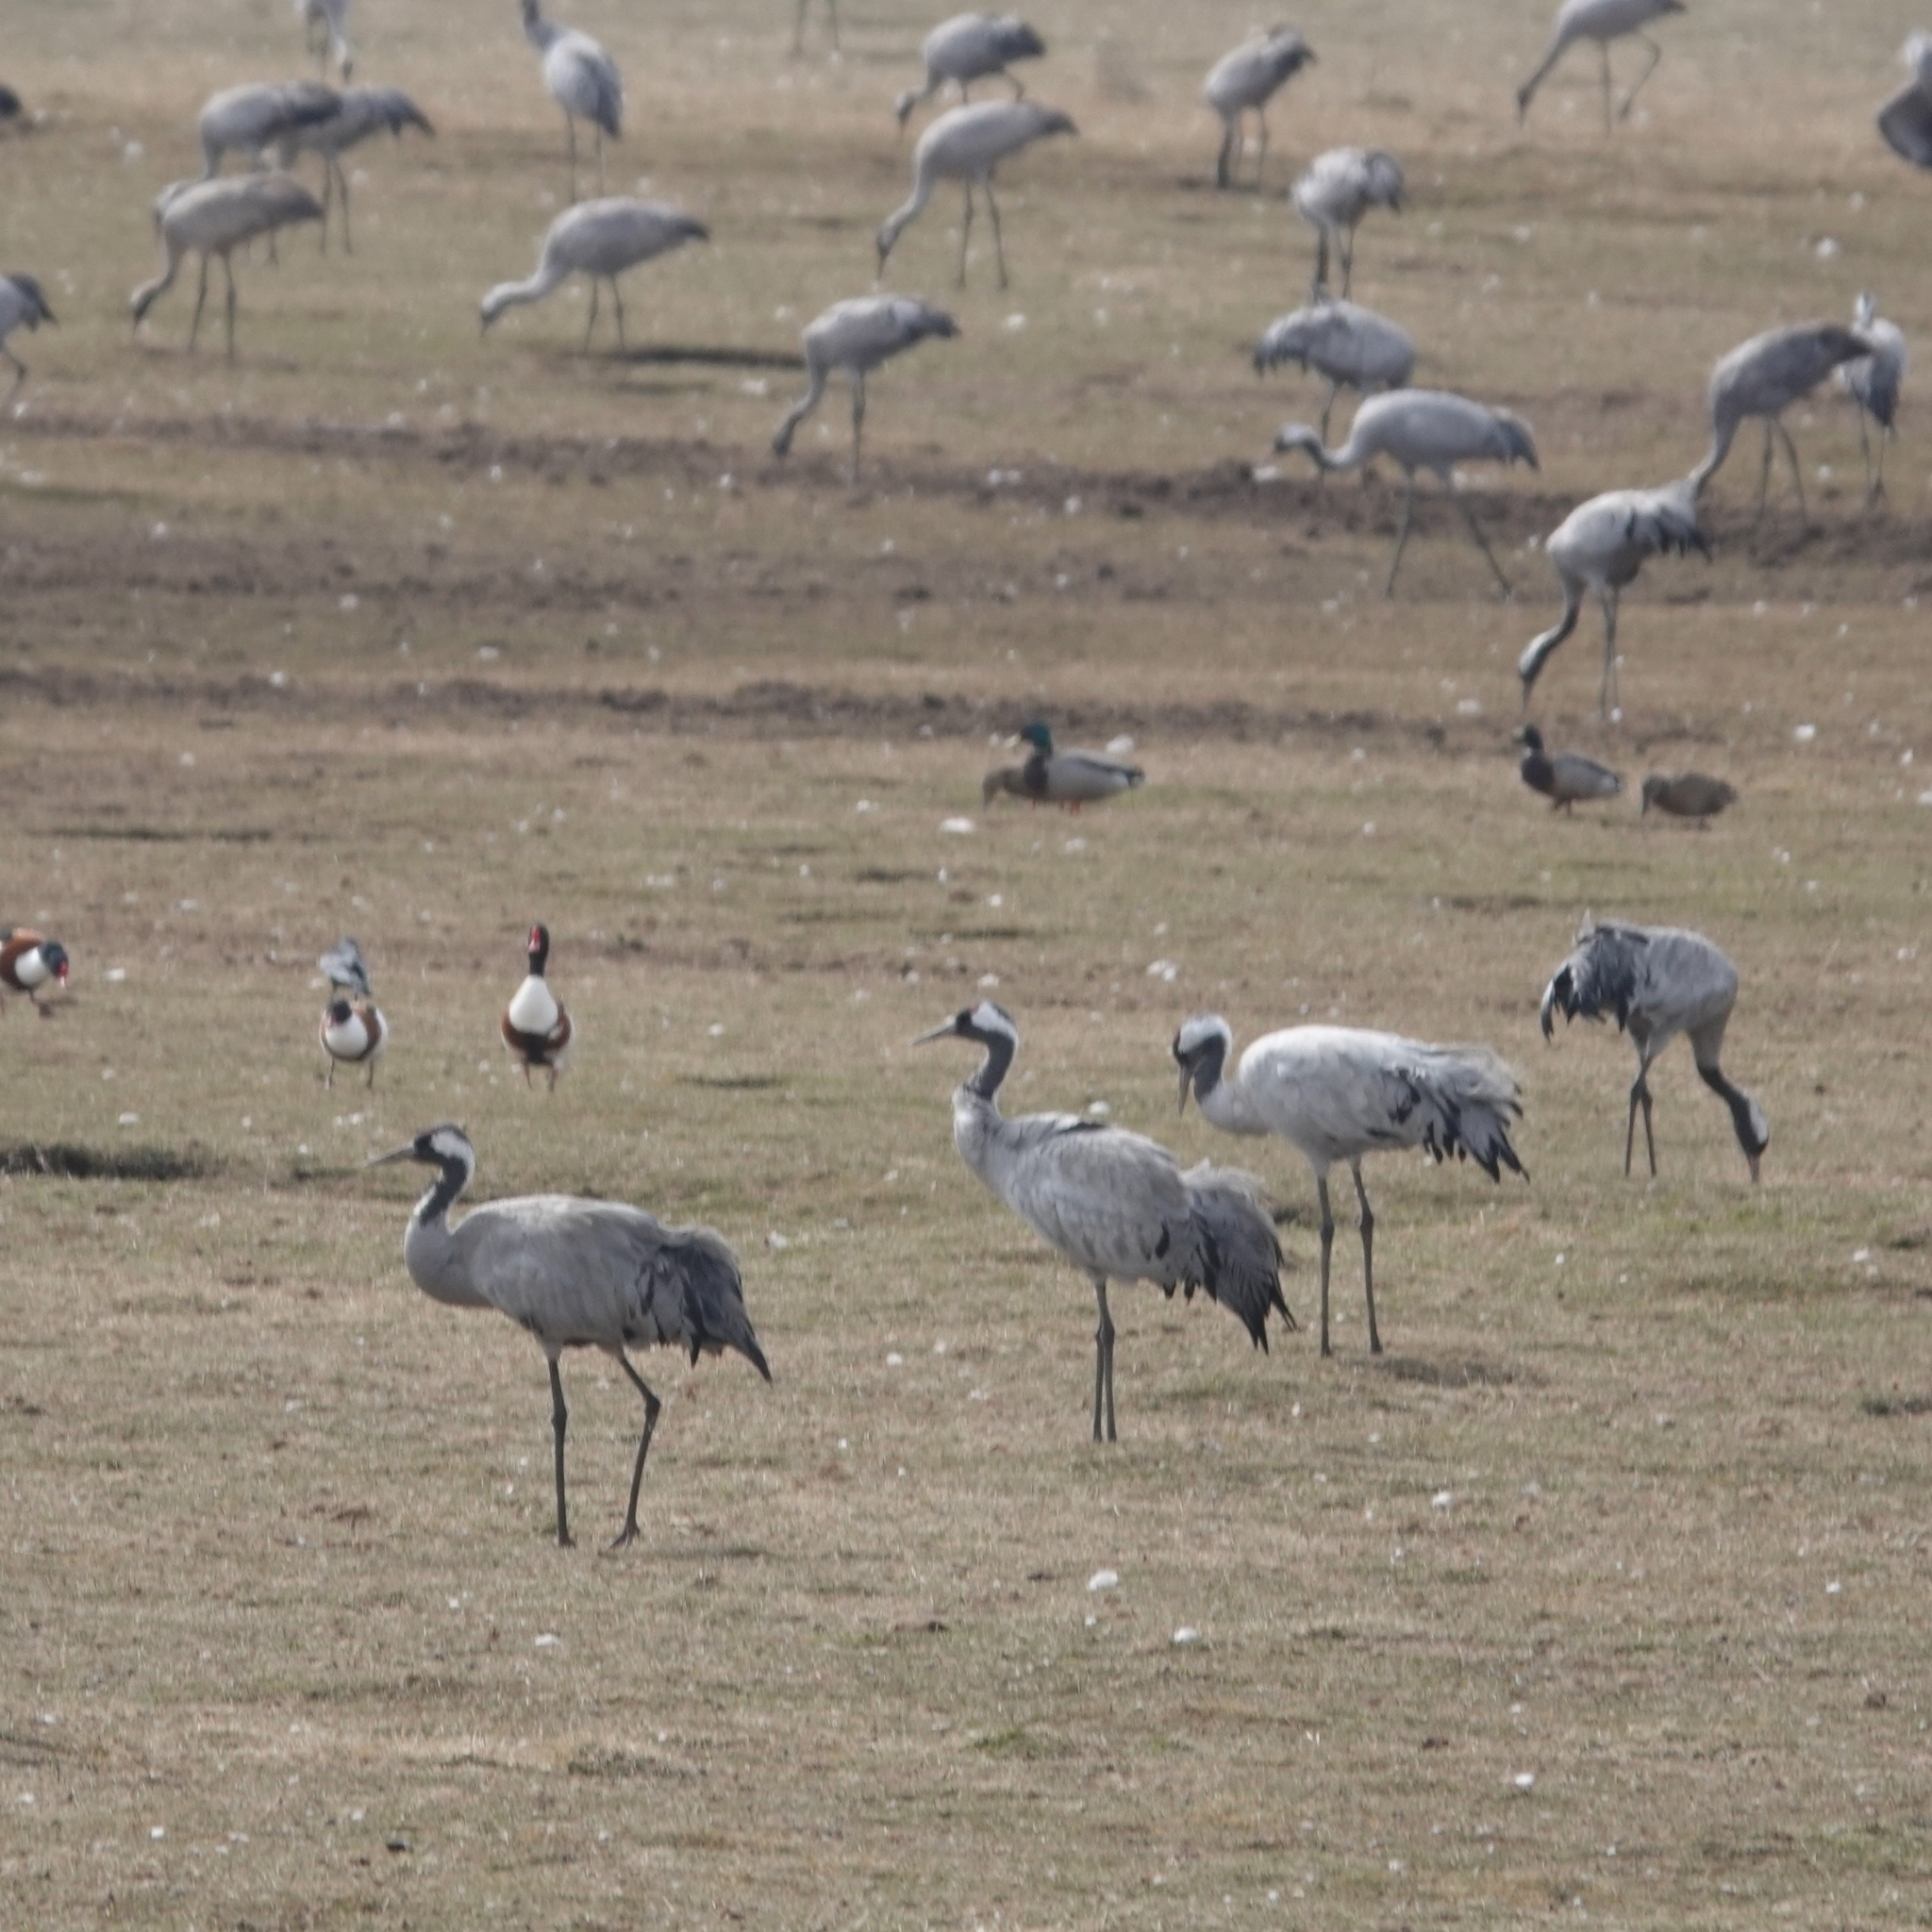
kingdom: Animalia
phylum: Chordata
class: Aves
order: Gruiformes
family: Gruidae
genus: Grus
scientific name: Grus grus
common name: Common crane
